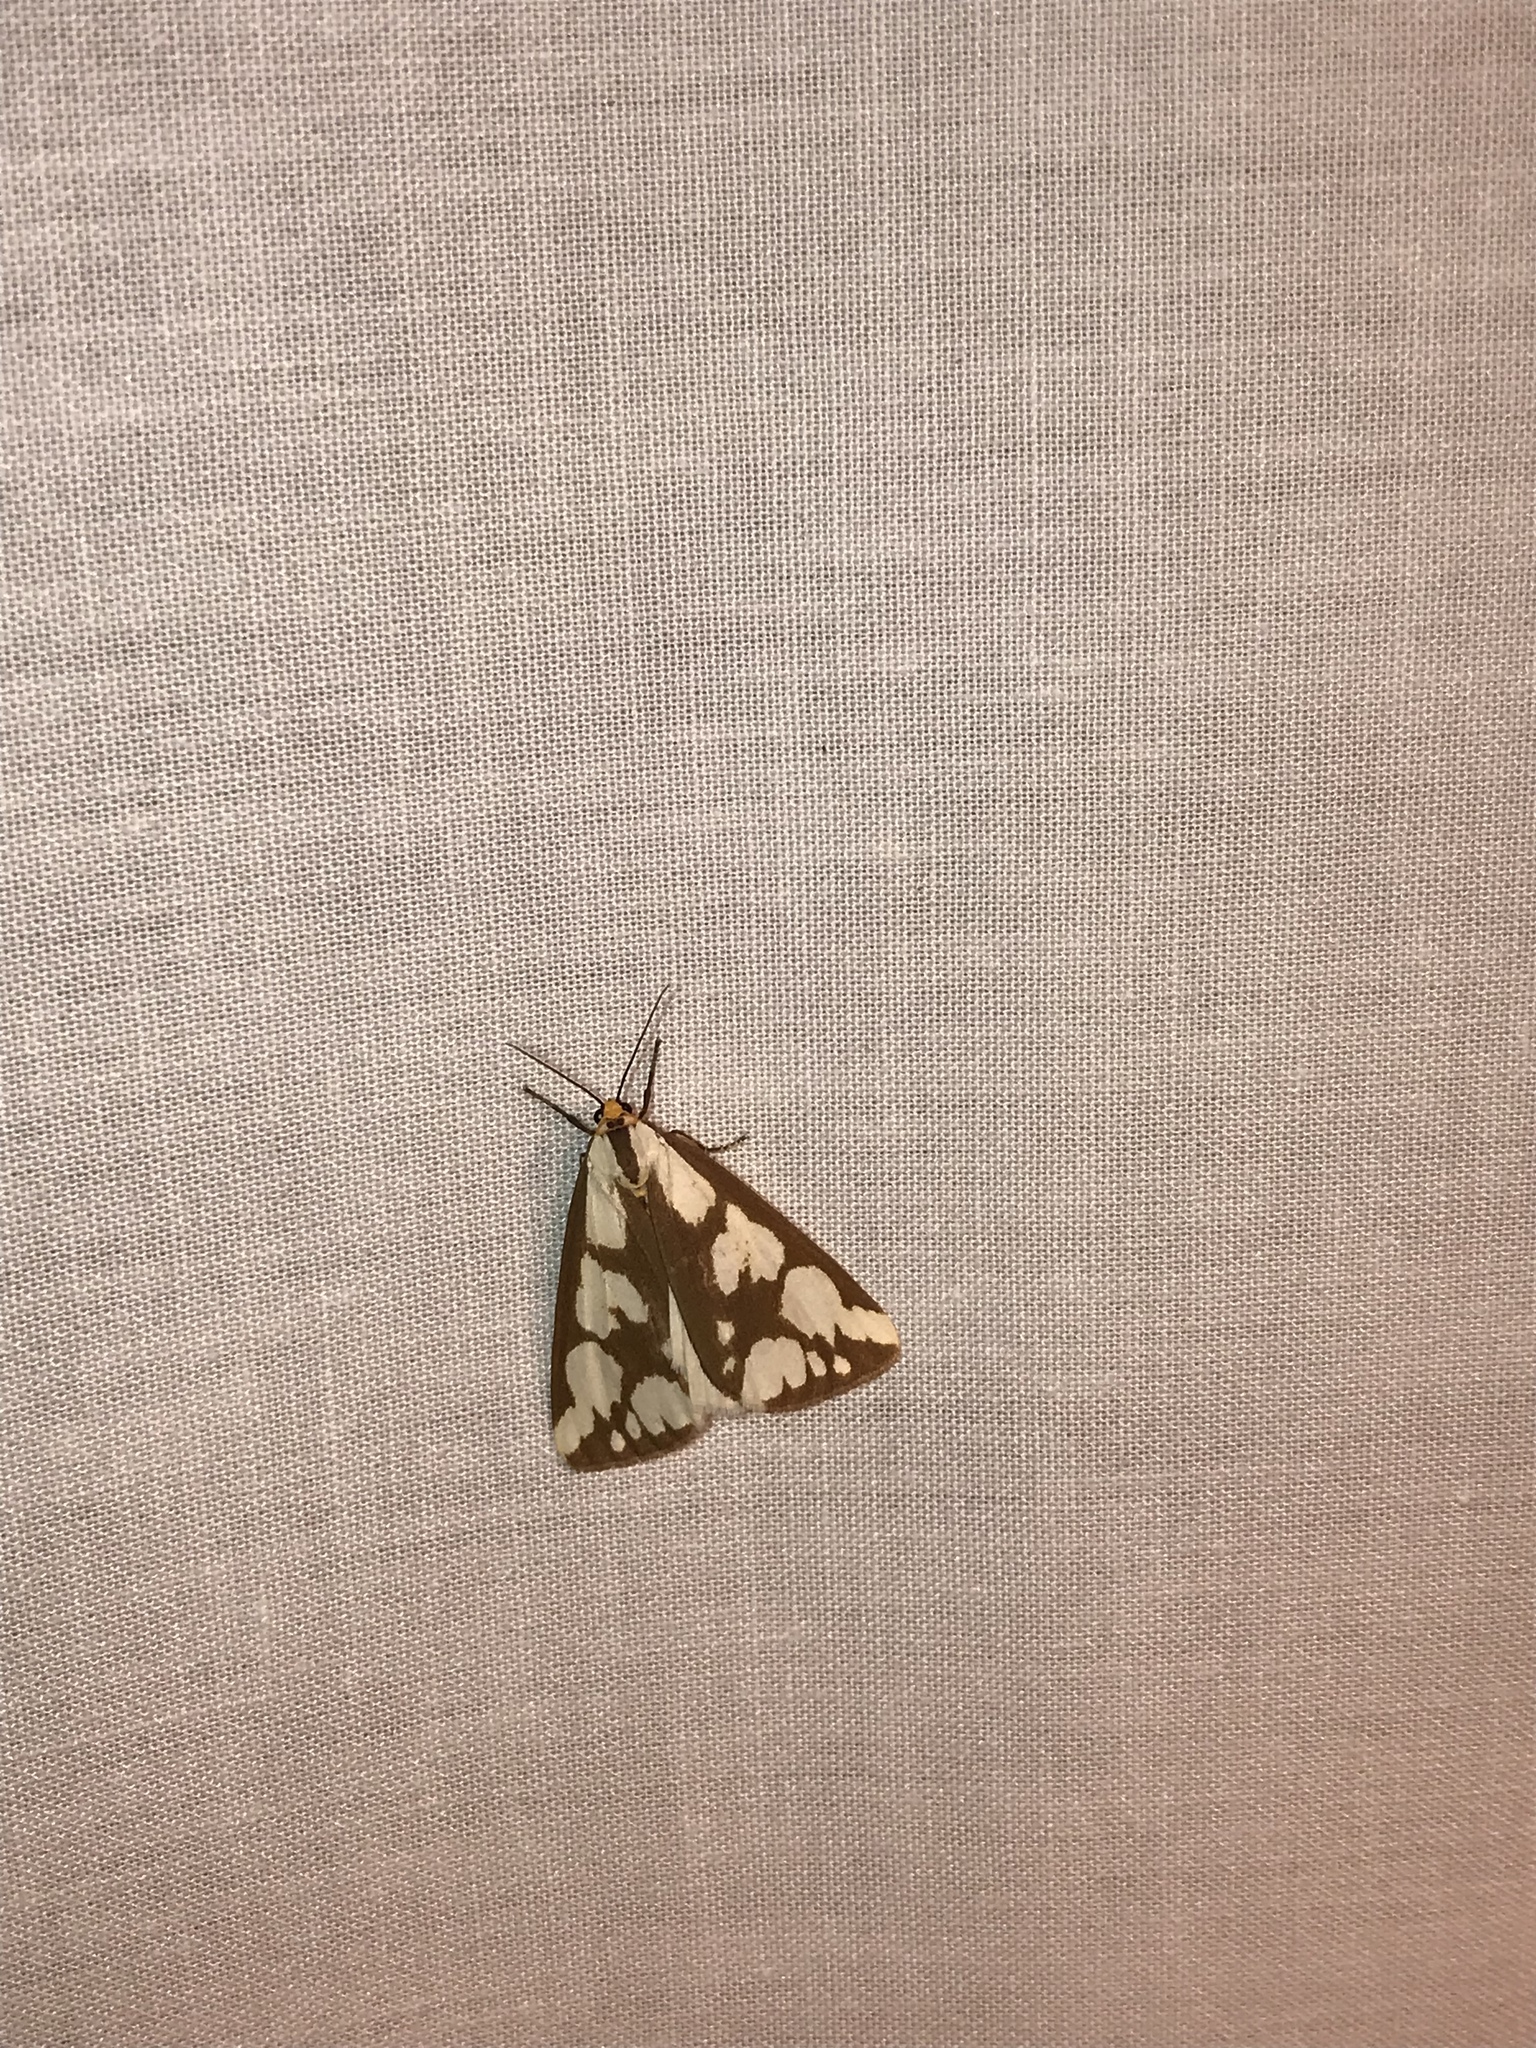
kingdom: Animalia
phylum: Arthropoda
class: Insecta
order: Lepidoptera
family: Erebidae
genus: Haploa
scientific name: Haploa confusa
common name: Confused haploa moth
